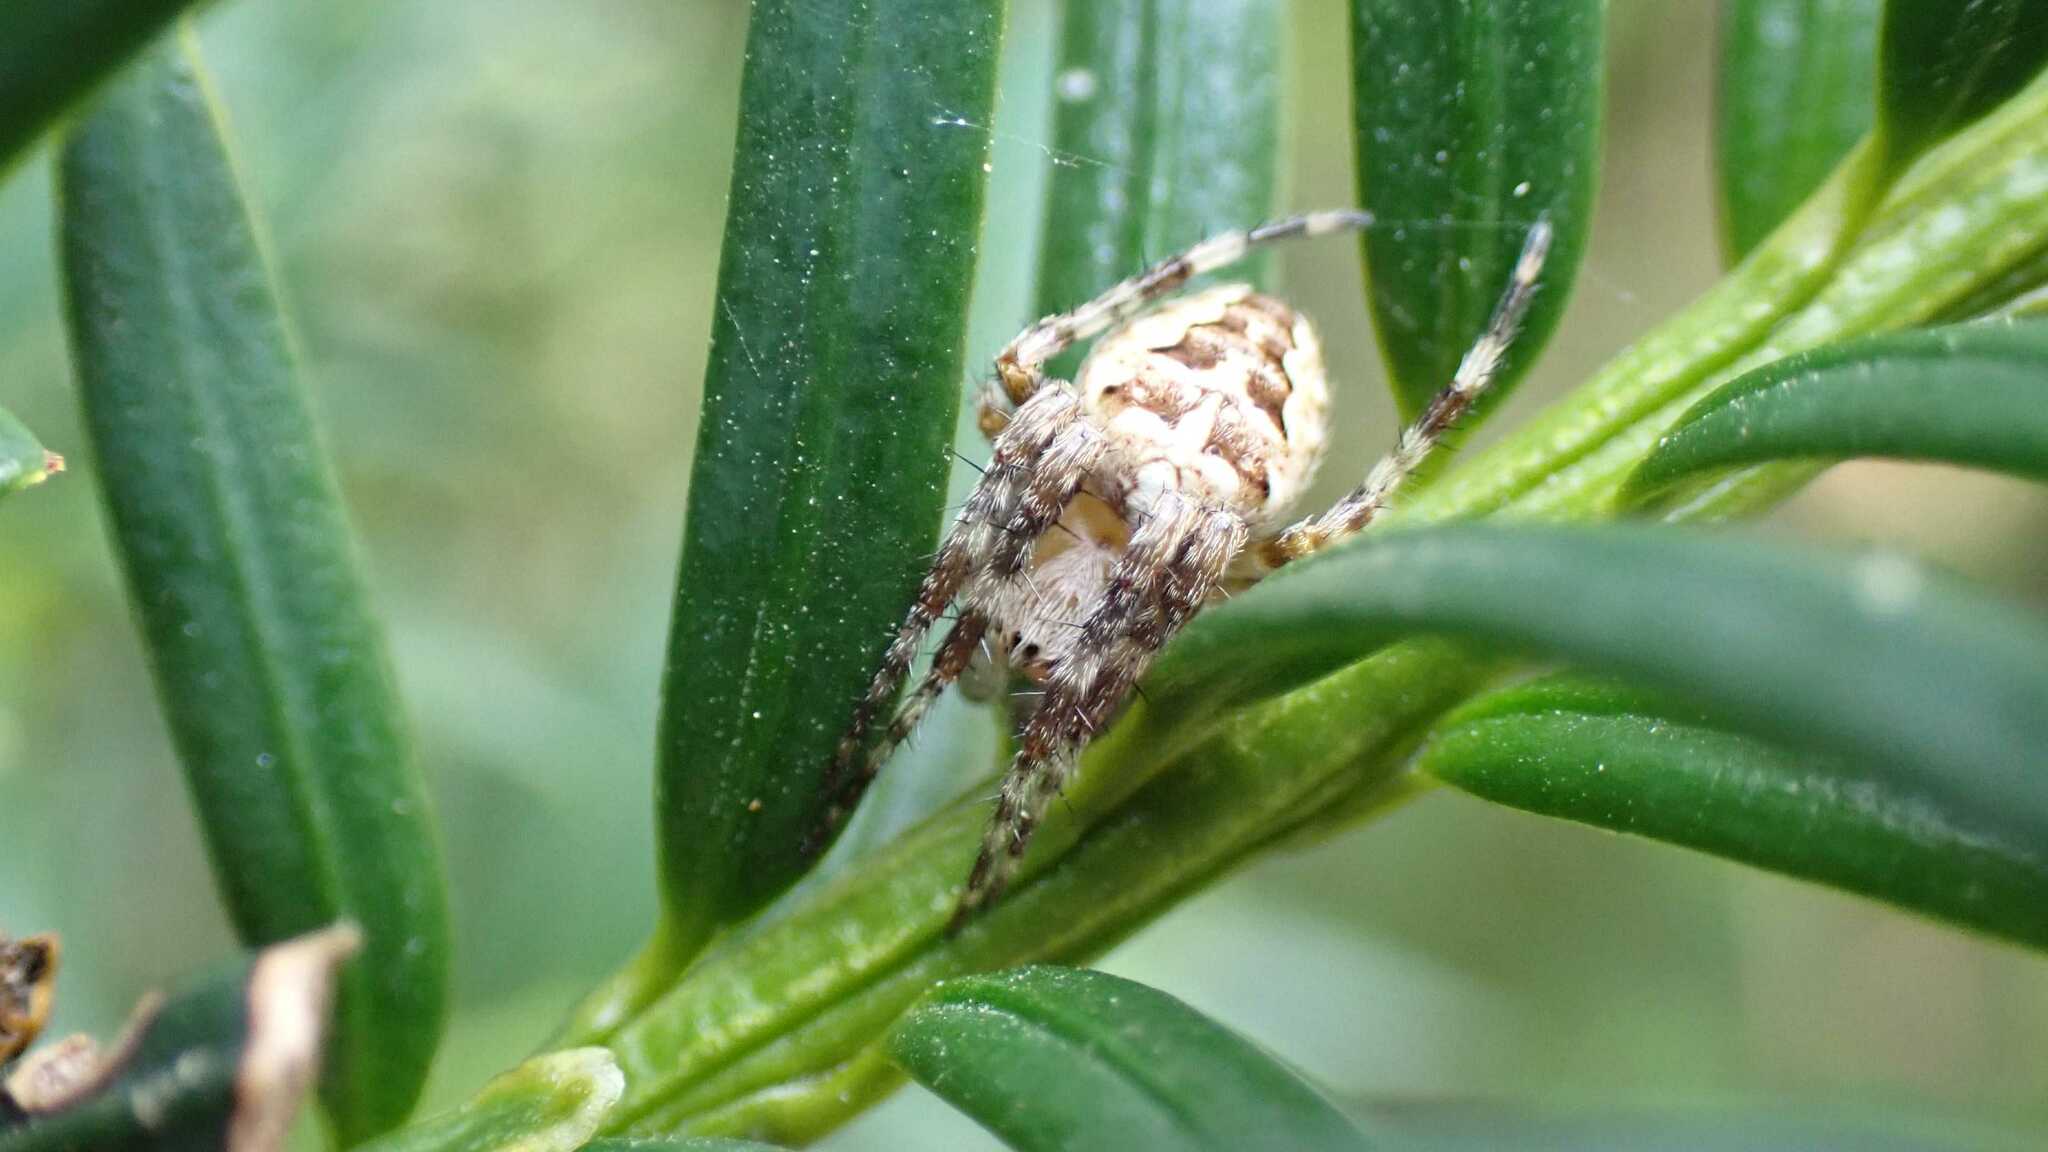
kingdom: Animalia
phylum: Arthropoda
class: Arachnida
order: Araneae
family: Araneidae
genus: Araneus
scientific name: Araneus diadematus
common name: Cross orbweaver
